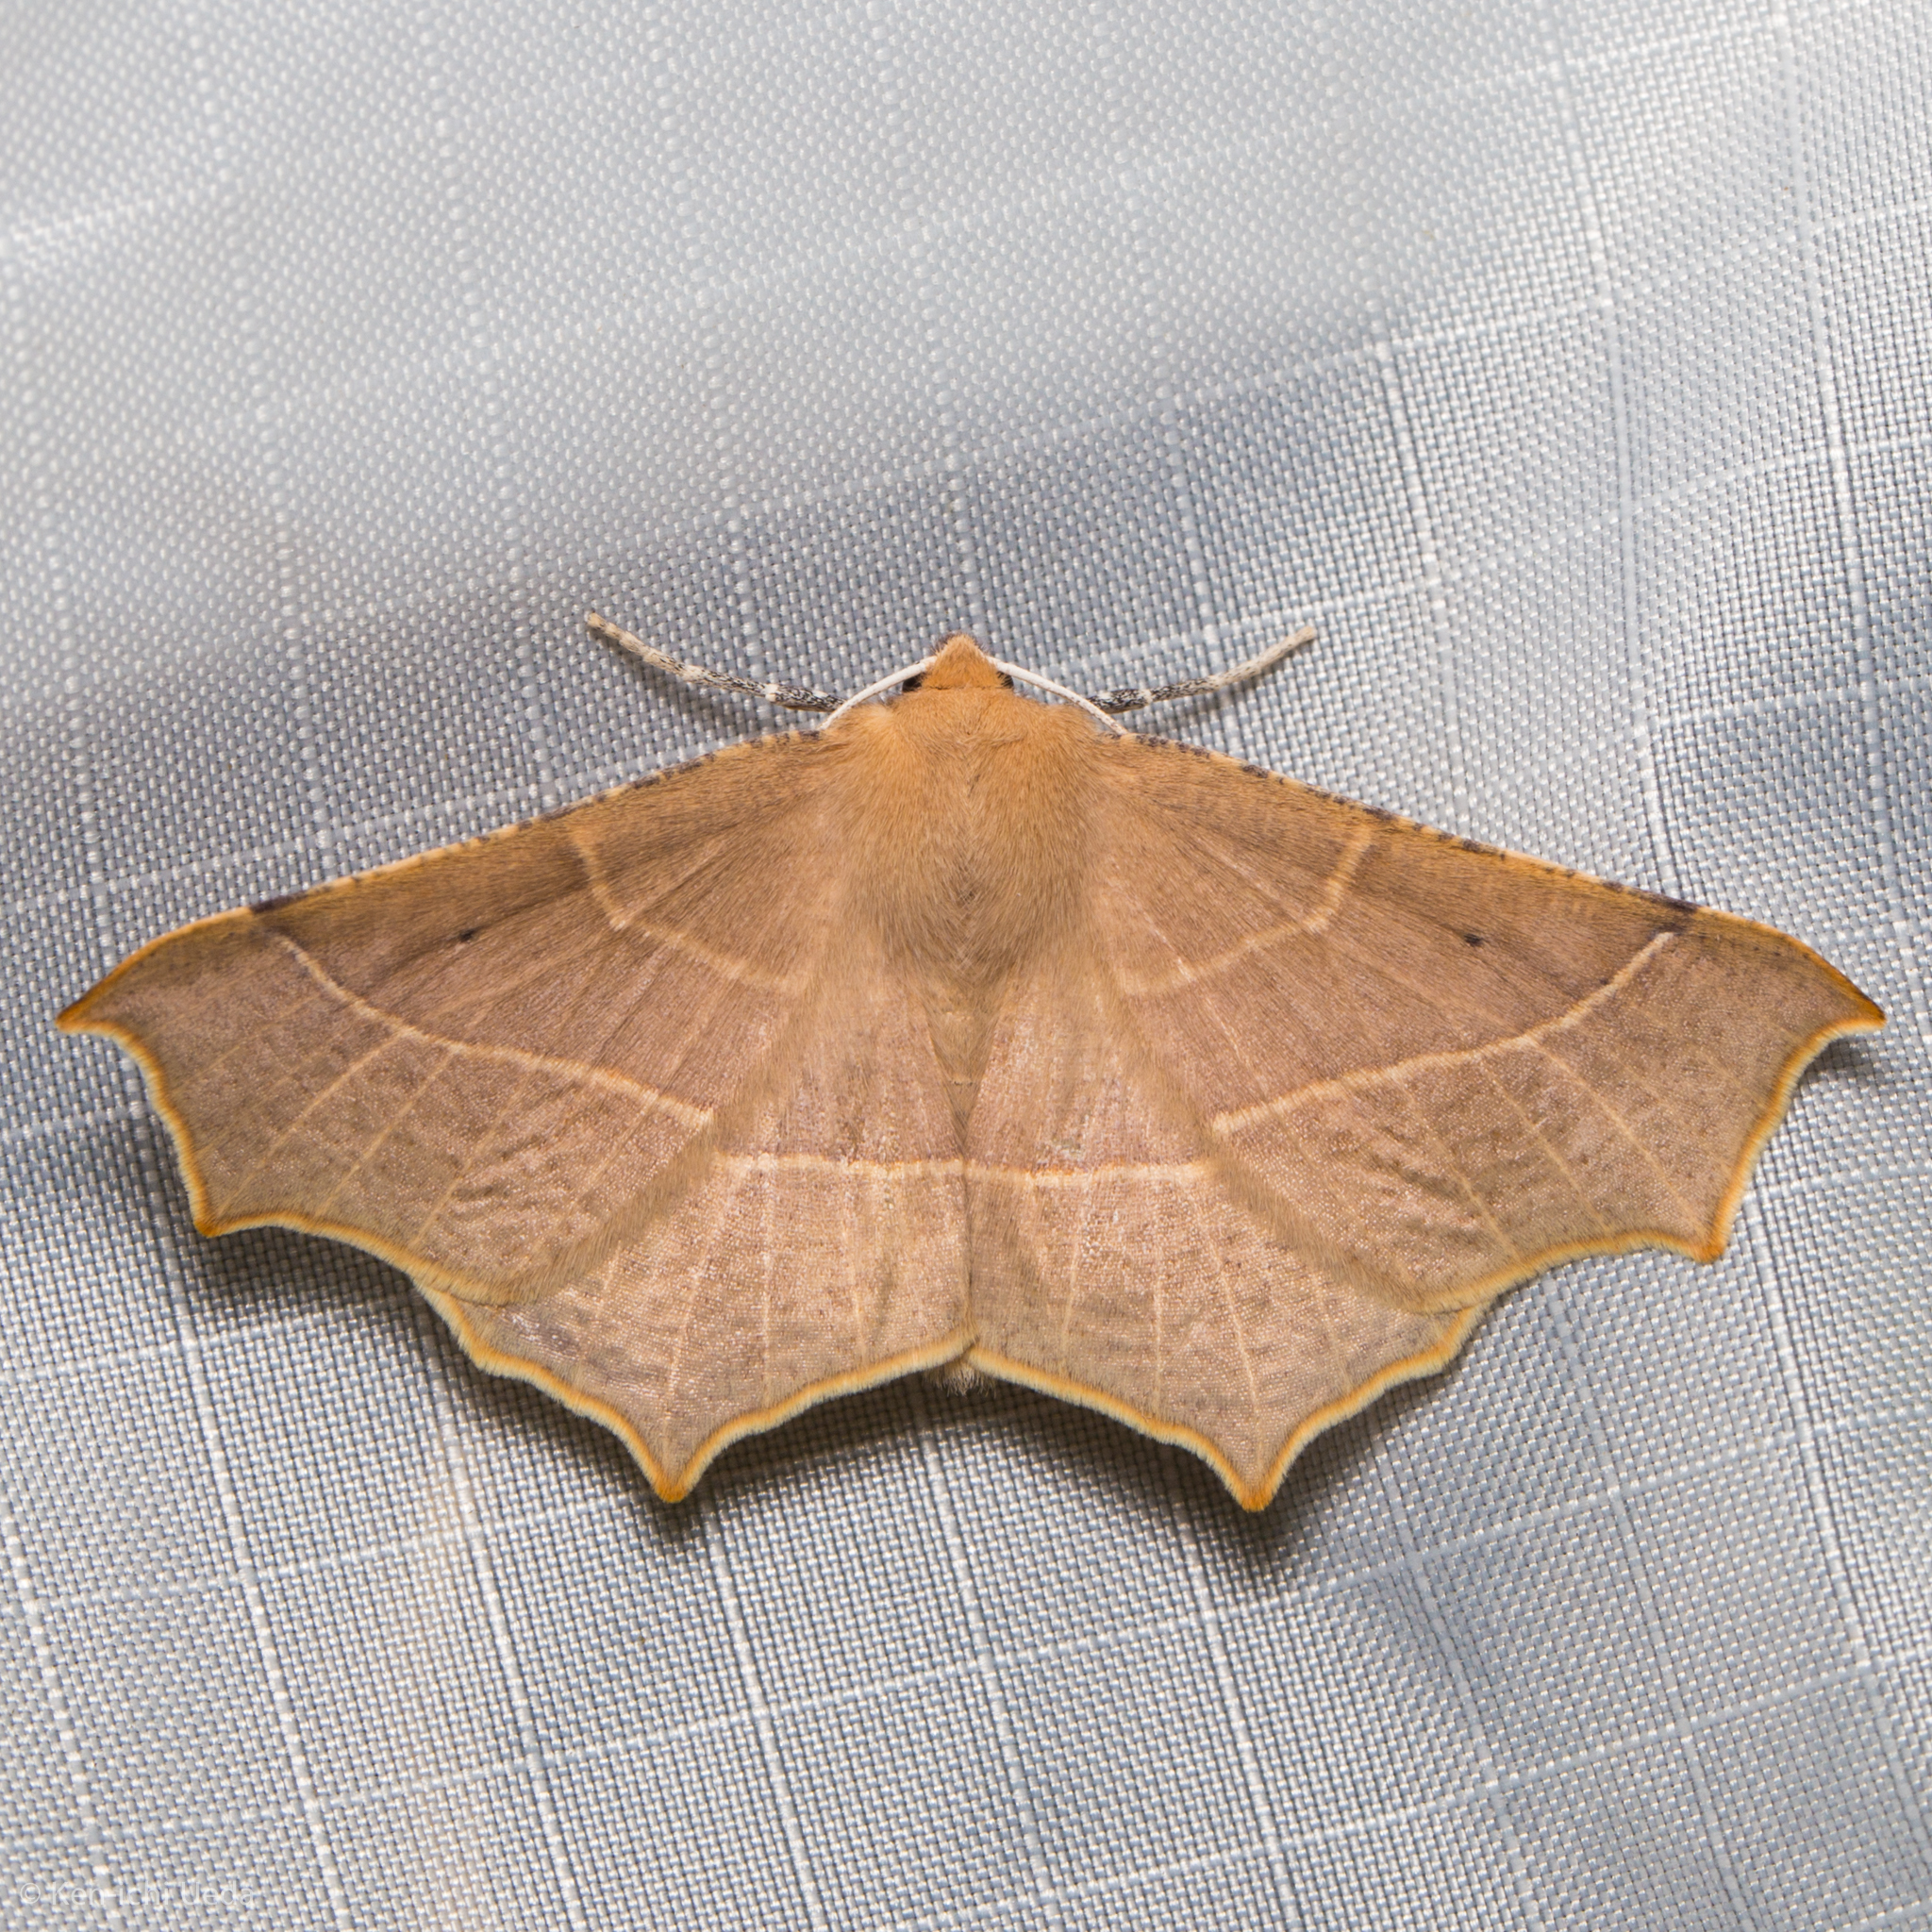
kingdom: Animalia
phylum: Arthropoda
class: Insecta
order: Lepidoptera
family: Geometridae
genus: Tetracis
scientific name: Tetracis cervinaria
